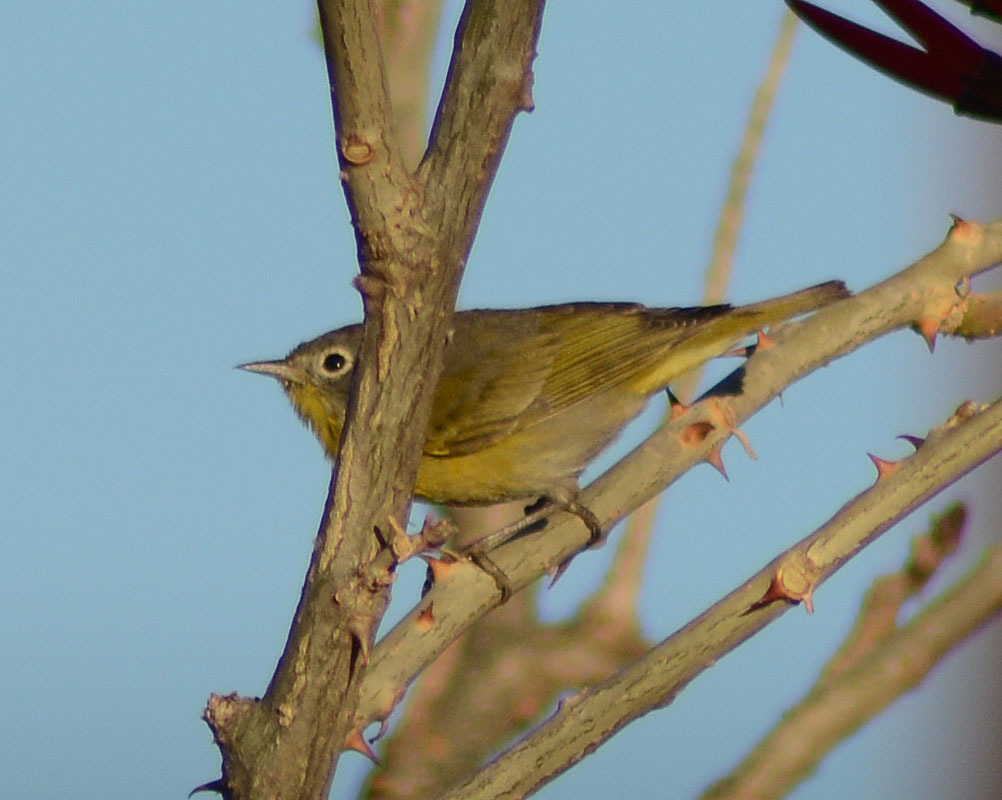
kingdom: Animalia
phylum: Chordata
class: Aves
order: Passeriformes
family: Parulidae
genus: Leiothlypis
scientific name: Leiothlypis ruficapilla
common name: Nashville warbler
